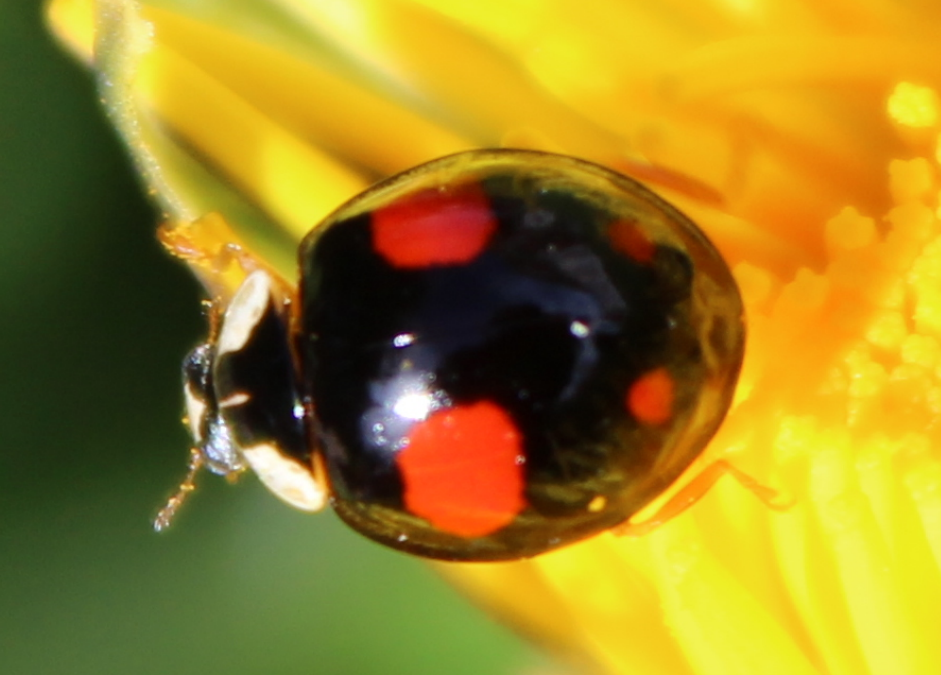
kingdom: Animalia
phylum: Arthropoda
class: Insecta
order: Coleoptera
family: Coccinellidae
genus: Harmonia
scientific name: Harmonia axyridis
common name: Harlequin ladybird
